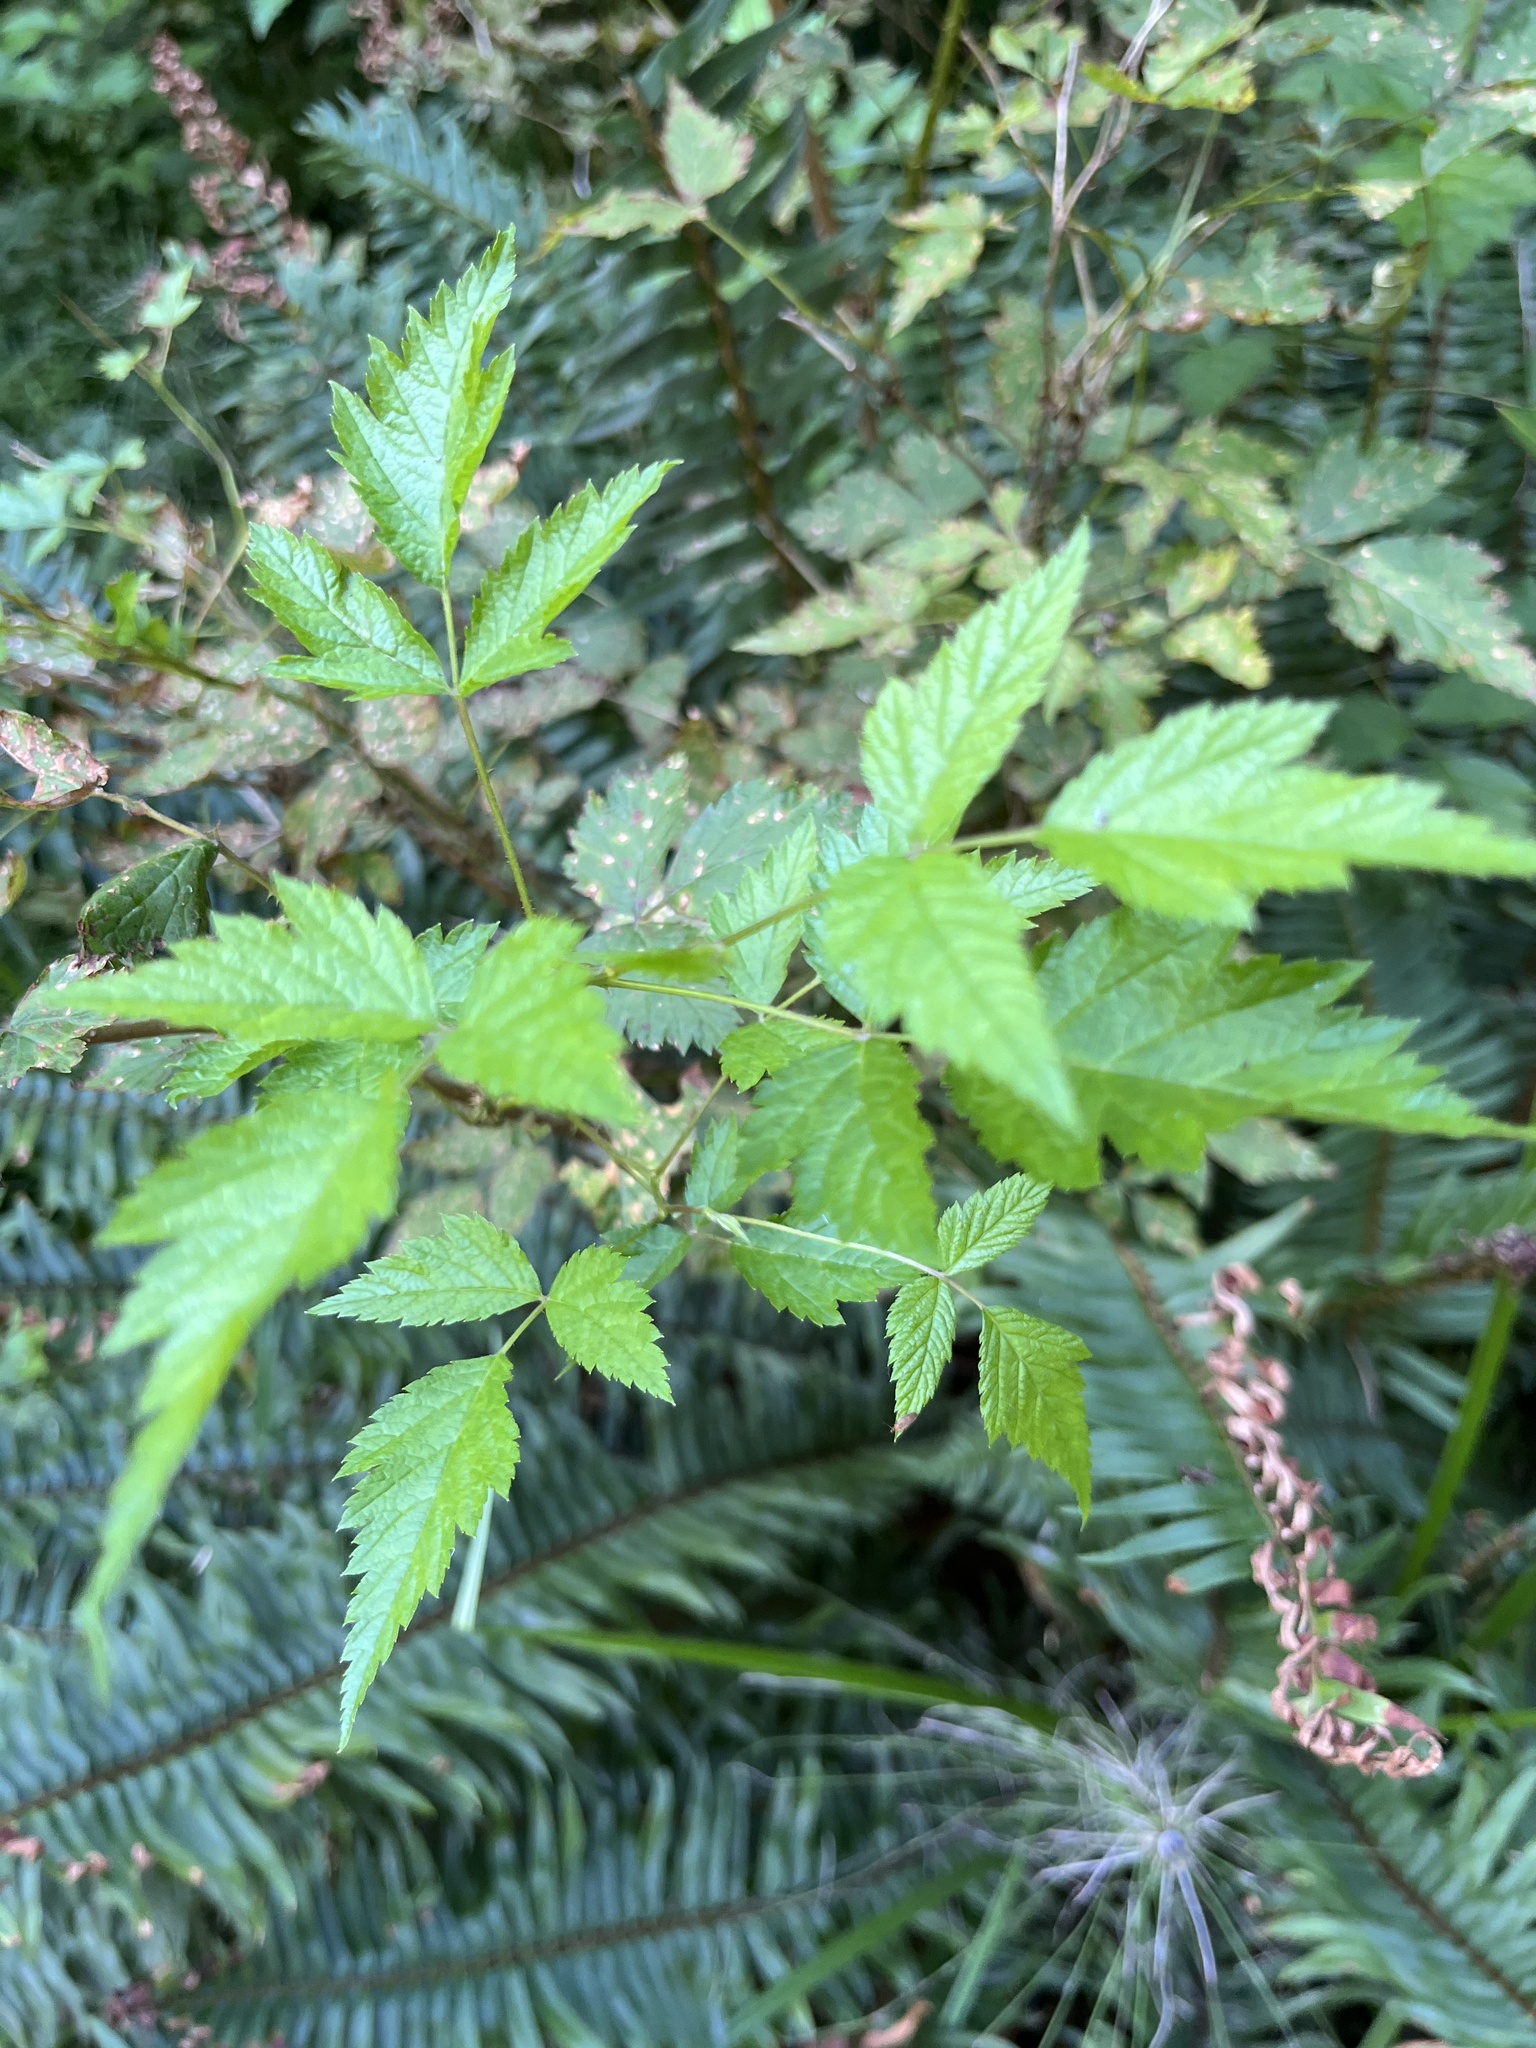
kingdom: Plantae
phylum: Tracheophyta
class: Magnoliopsida
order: Rosales
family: Rosaceae
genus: Rubus
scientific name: Rubus spectabilis
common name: Salmonberry
